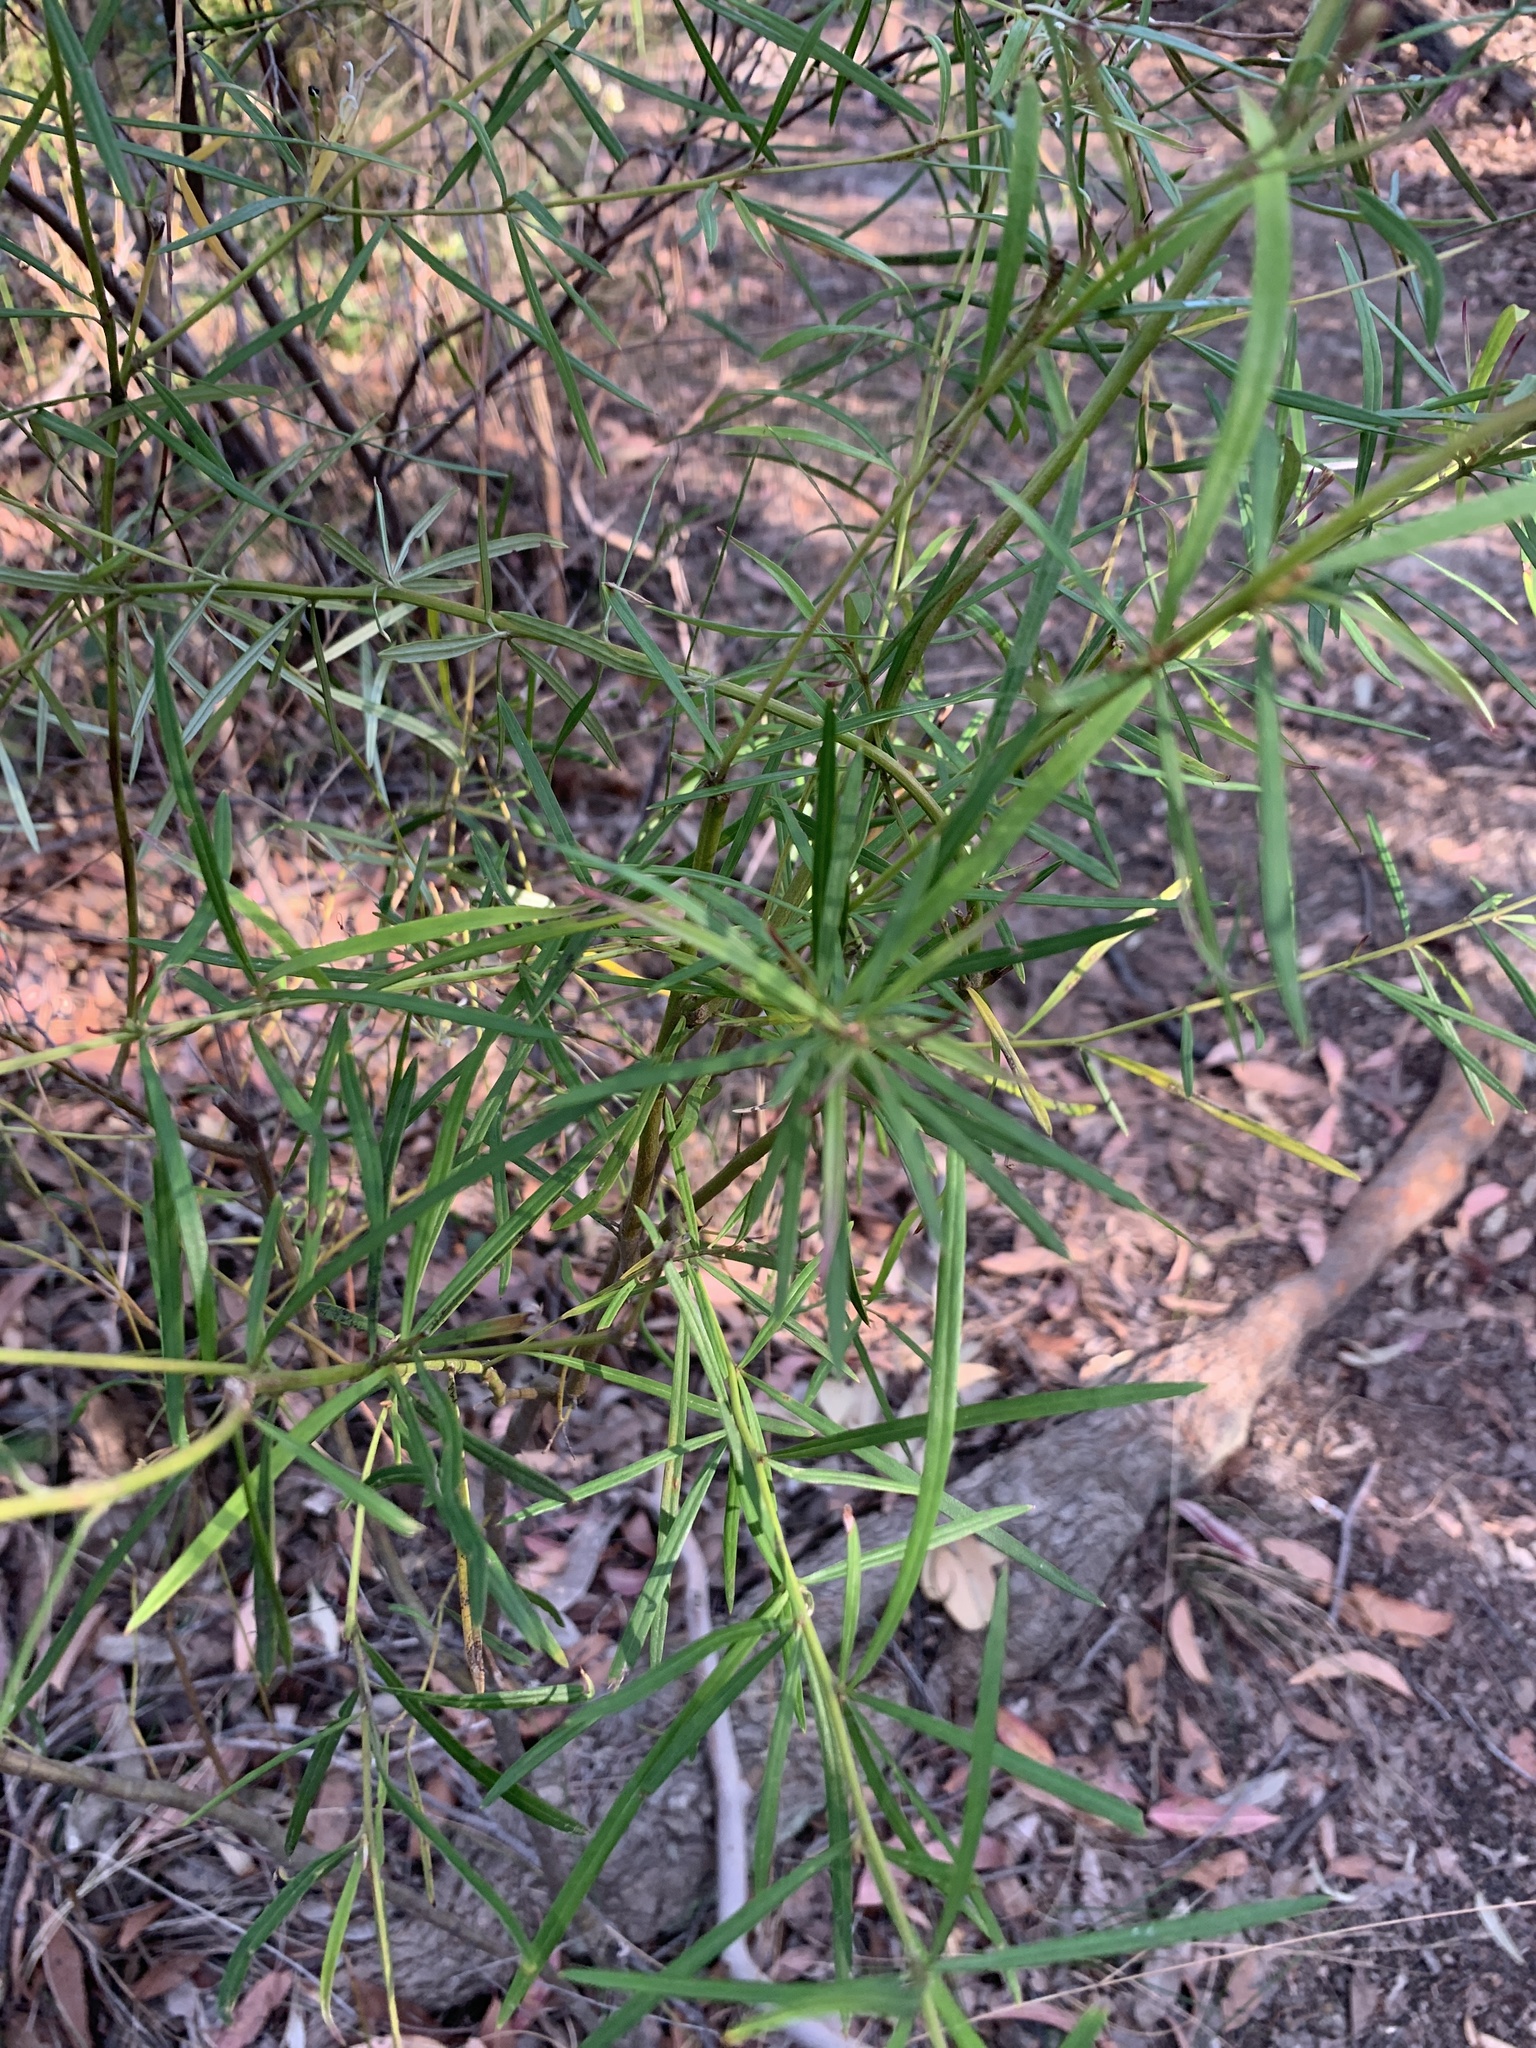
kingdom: Plantae
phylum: Tracheophyta
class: Magnoliopsida
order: Proteales
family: Proteaceae
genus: Grevillea
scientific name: Grevillea linearifolia
